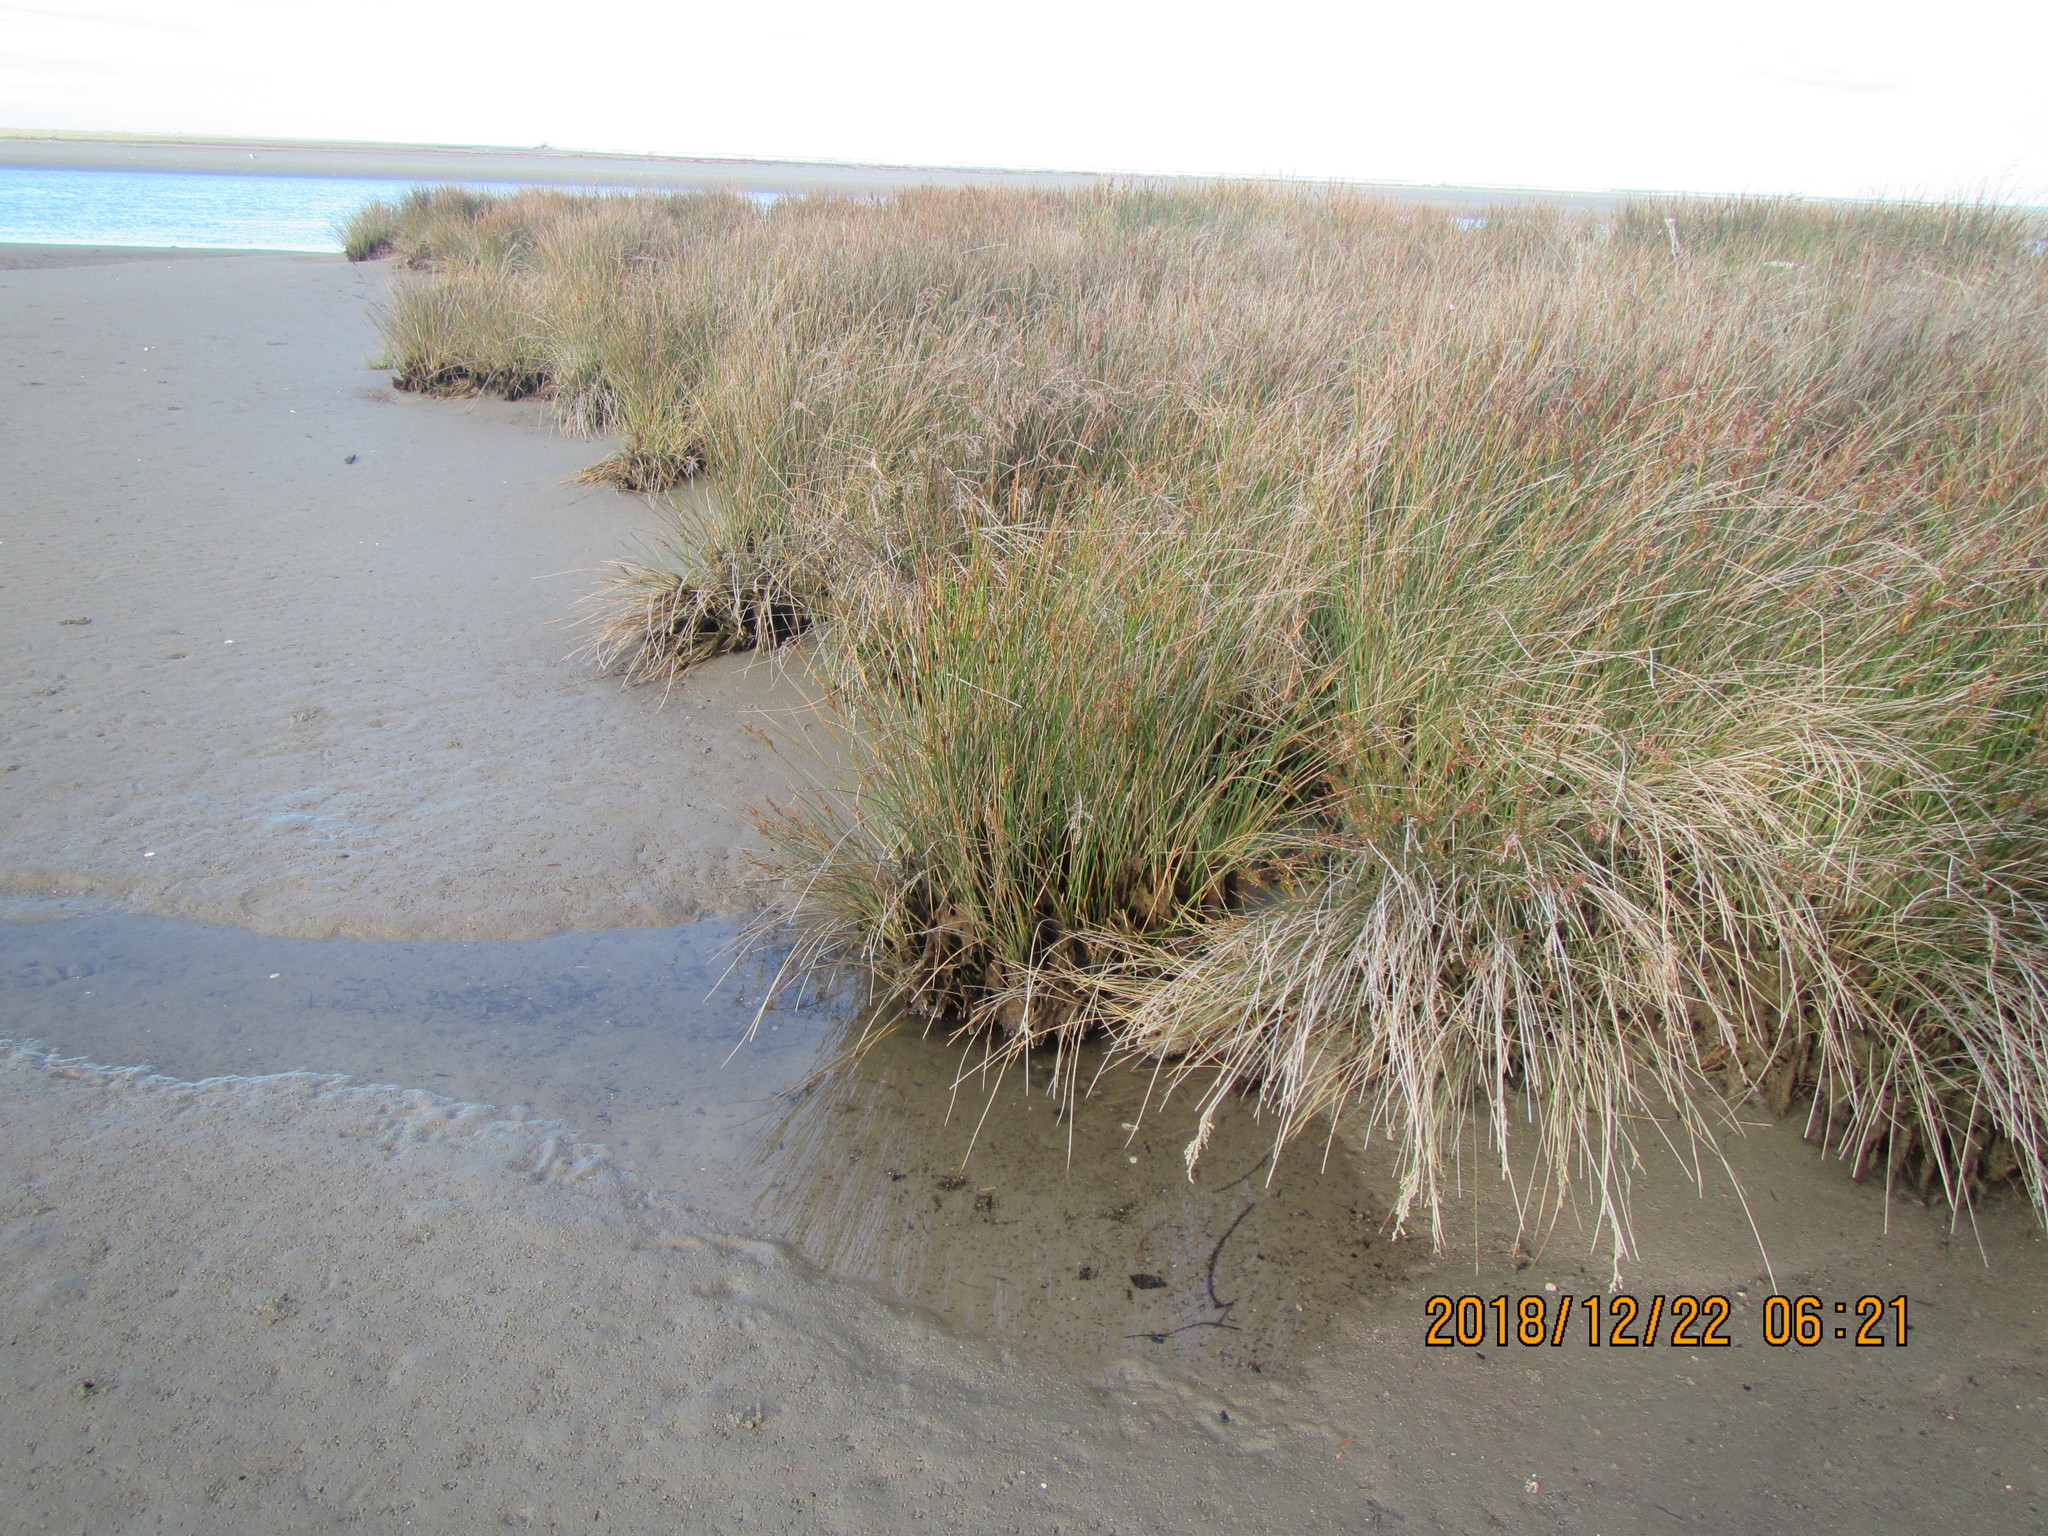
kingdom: Plantae
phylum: Tracheophyta
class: Liliopsida
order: Poales
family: Juncaceae
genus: Juncus
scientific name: Juncus kraussii
